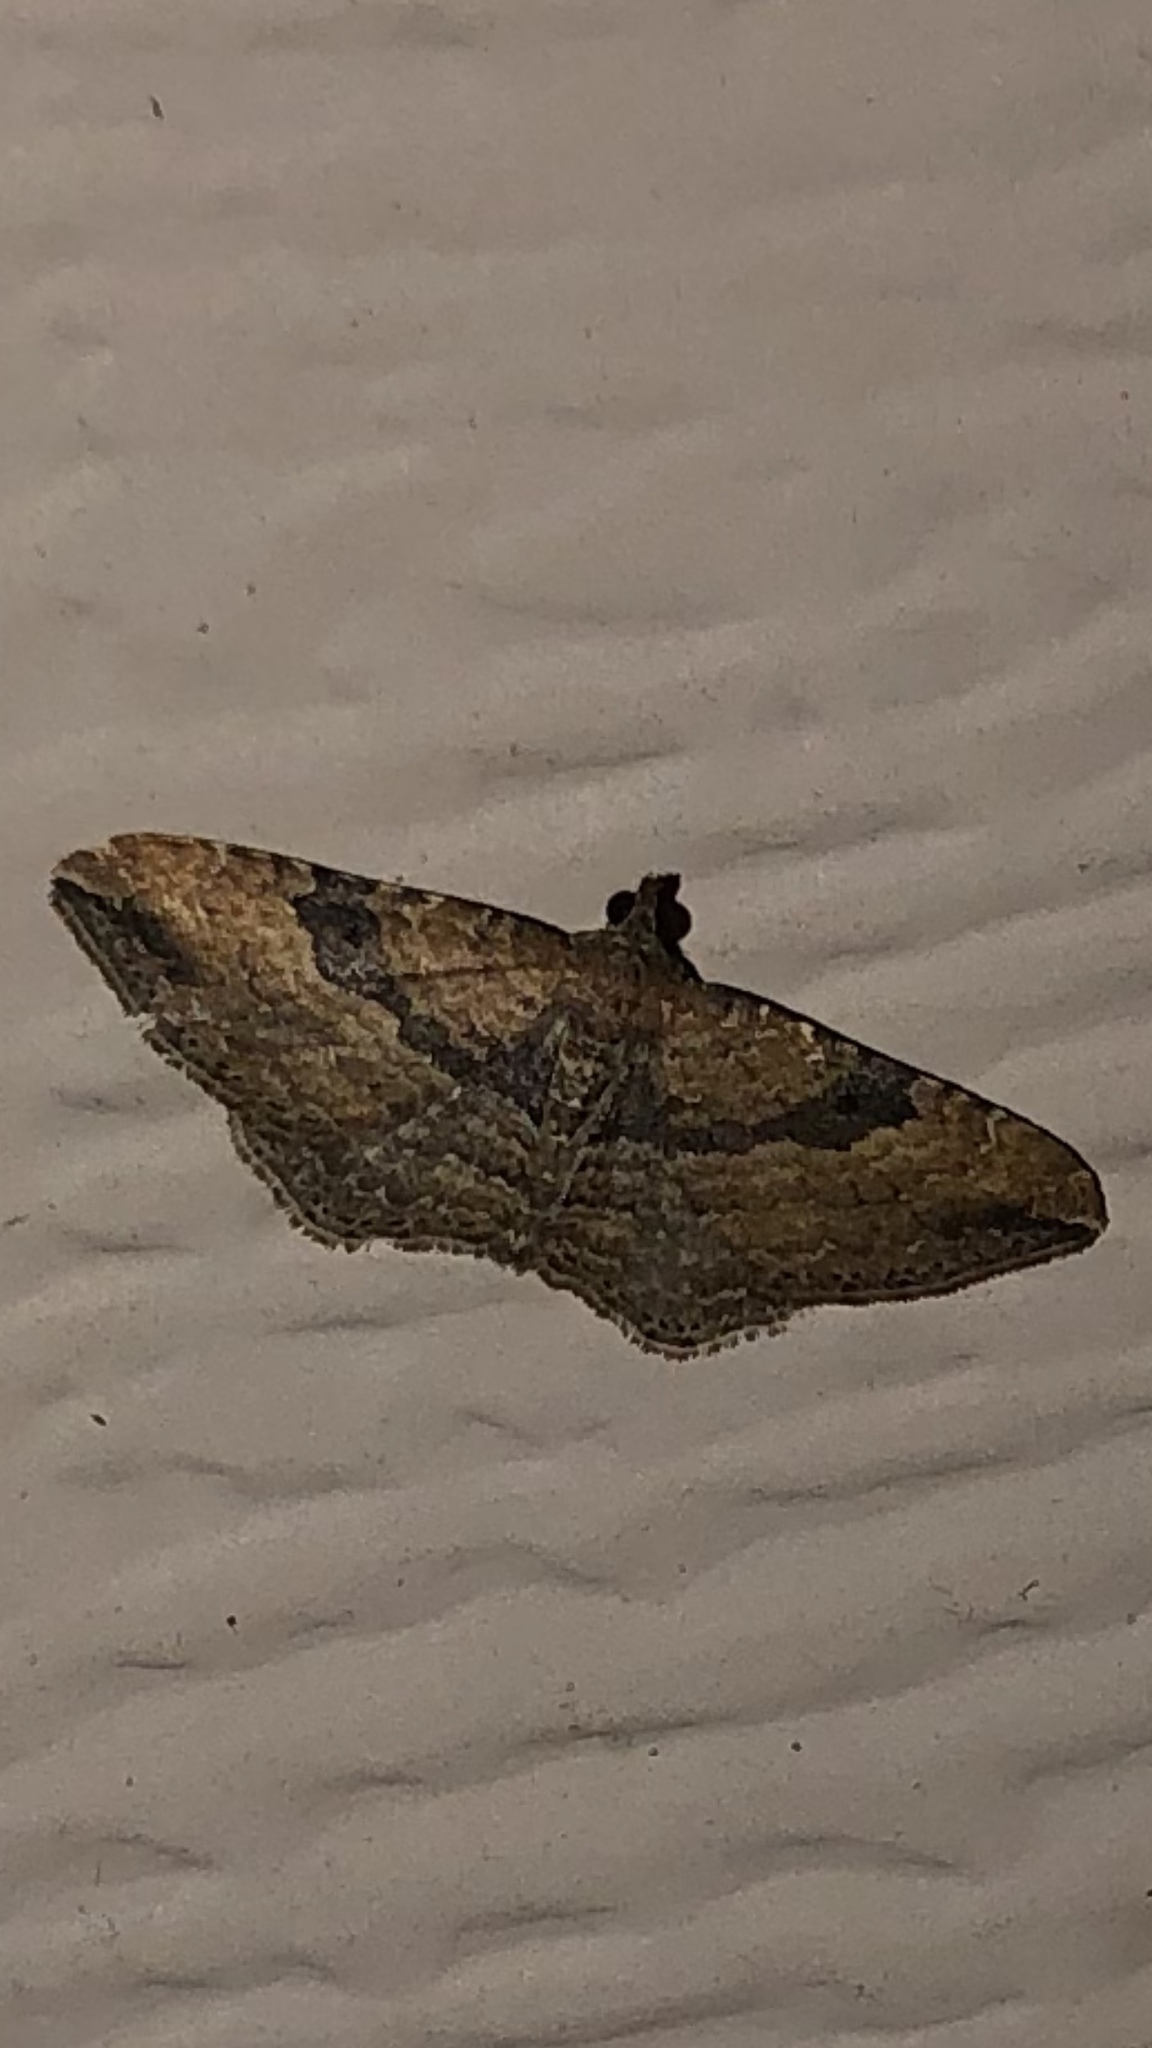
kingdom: Animalia
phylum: Arthropoda
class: Insecta
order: Lepidoptera
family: Geometridae
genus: Orthonama
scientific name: Orthonama obstipata
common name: The gem
